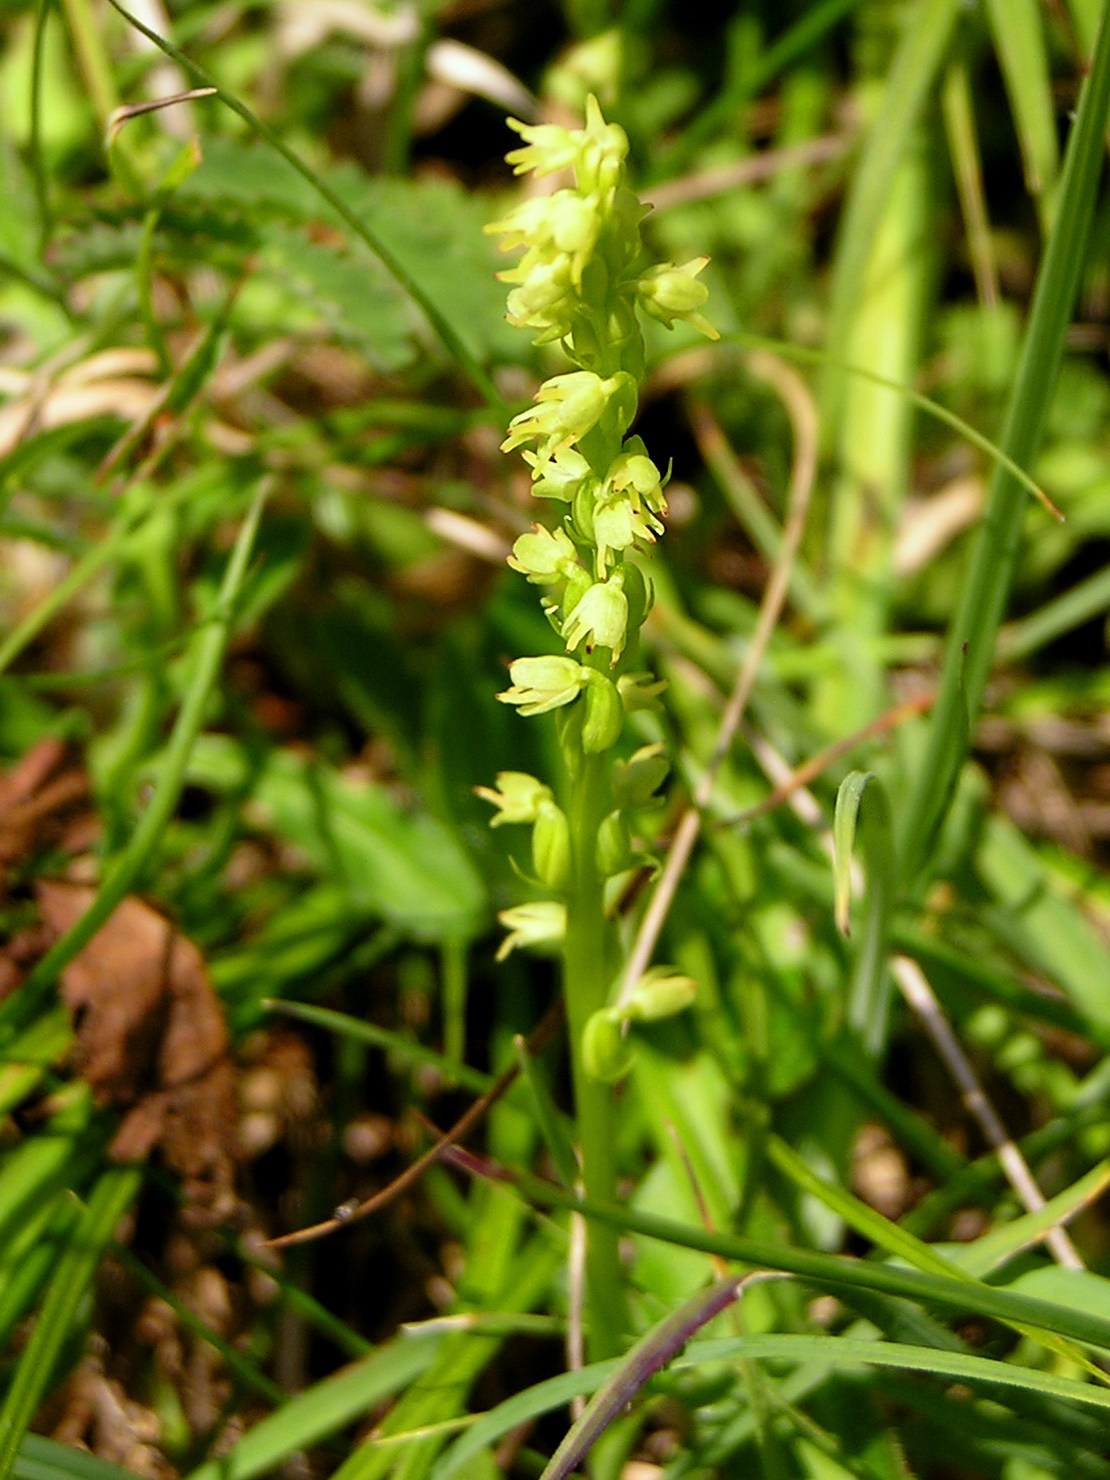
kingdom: Plantae
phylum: Tracheophyta
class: Liliopsida
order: Asparagales
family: Orchidaceae
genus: Herminium
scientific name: Herminium monorchis
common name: Musk orchid
